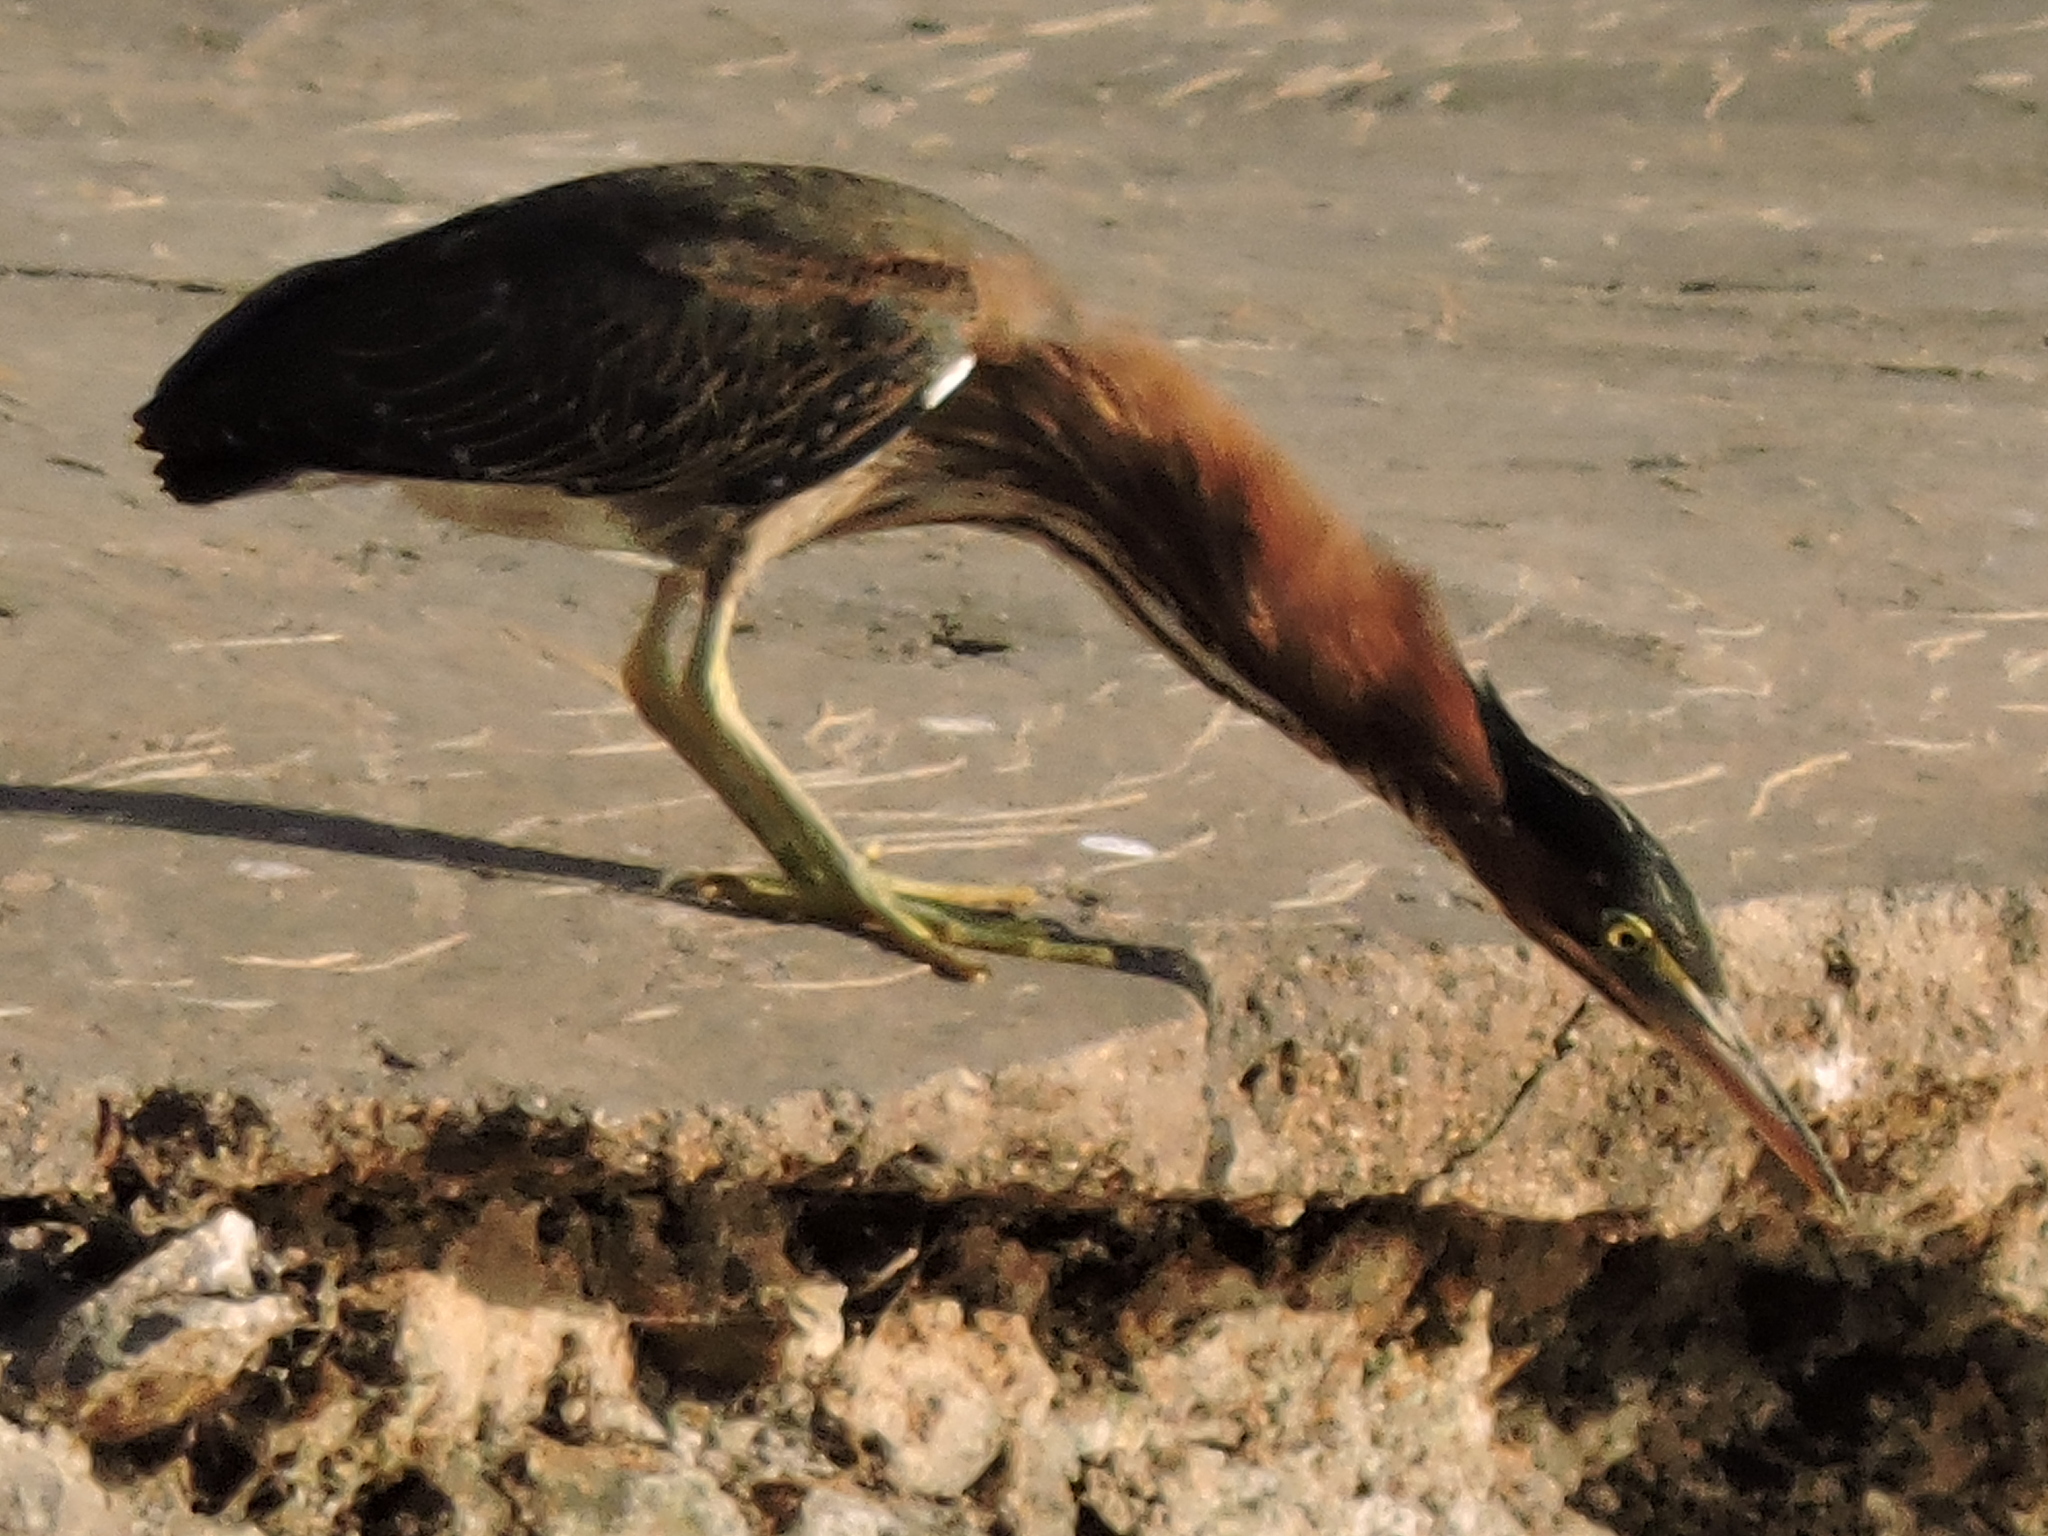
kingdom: Animalia
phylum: Chordata
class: Aves
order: Pelecaniformes
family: Ardeidae
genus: Butorides
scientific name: Butorides virescens
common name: Green heron
